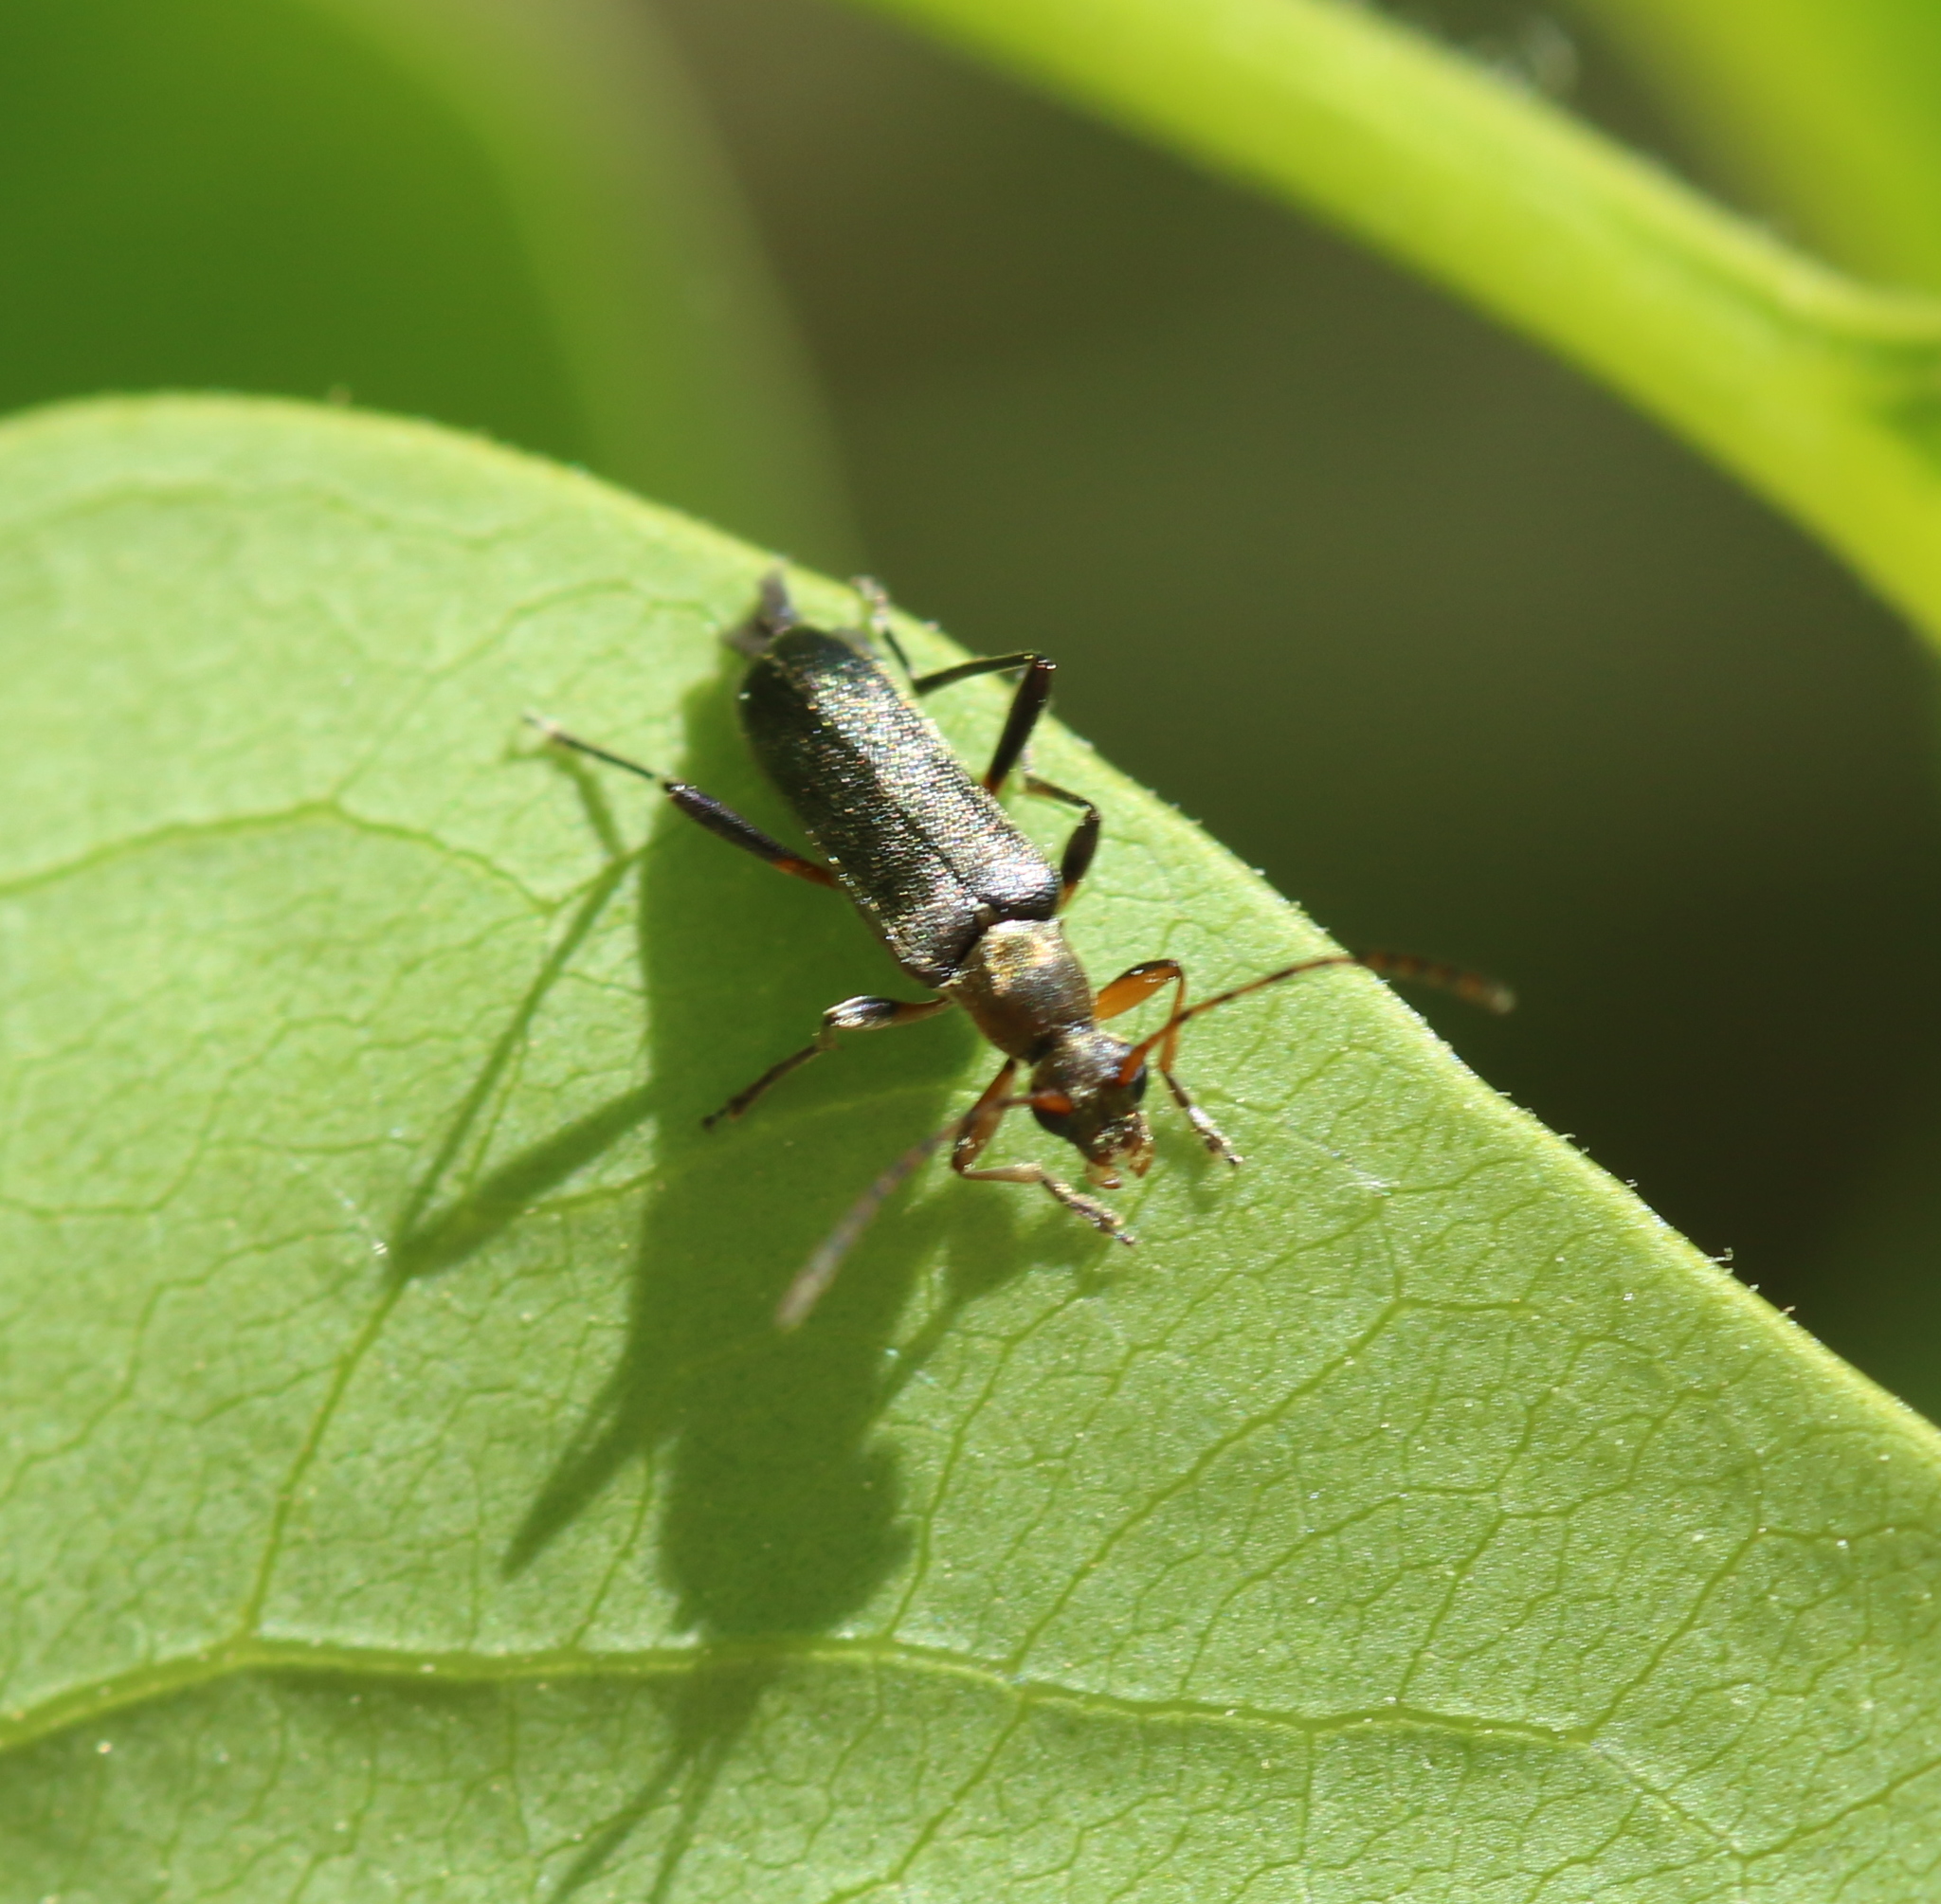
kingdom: Animalia
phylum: Arthropoda
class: Insecta
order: Coleoptera
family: Cerambycidae
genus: Grammoptera
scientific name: Grammoptera ruficornis
